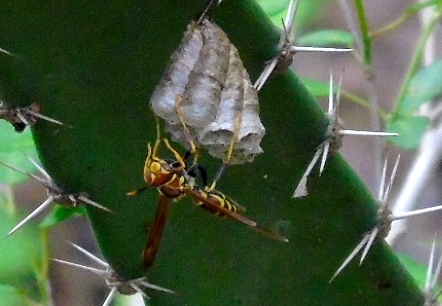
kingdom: Animalia
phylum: Arthropoda
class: Insecta
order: Hymenoptera
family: Eumenidae
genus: Polistes
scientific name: Polistes instabilis
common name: Unstable paper wasp
